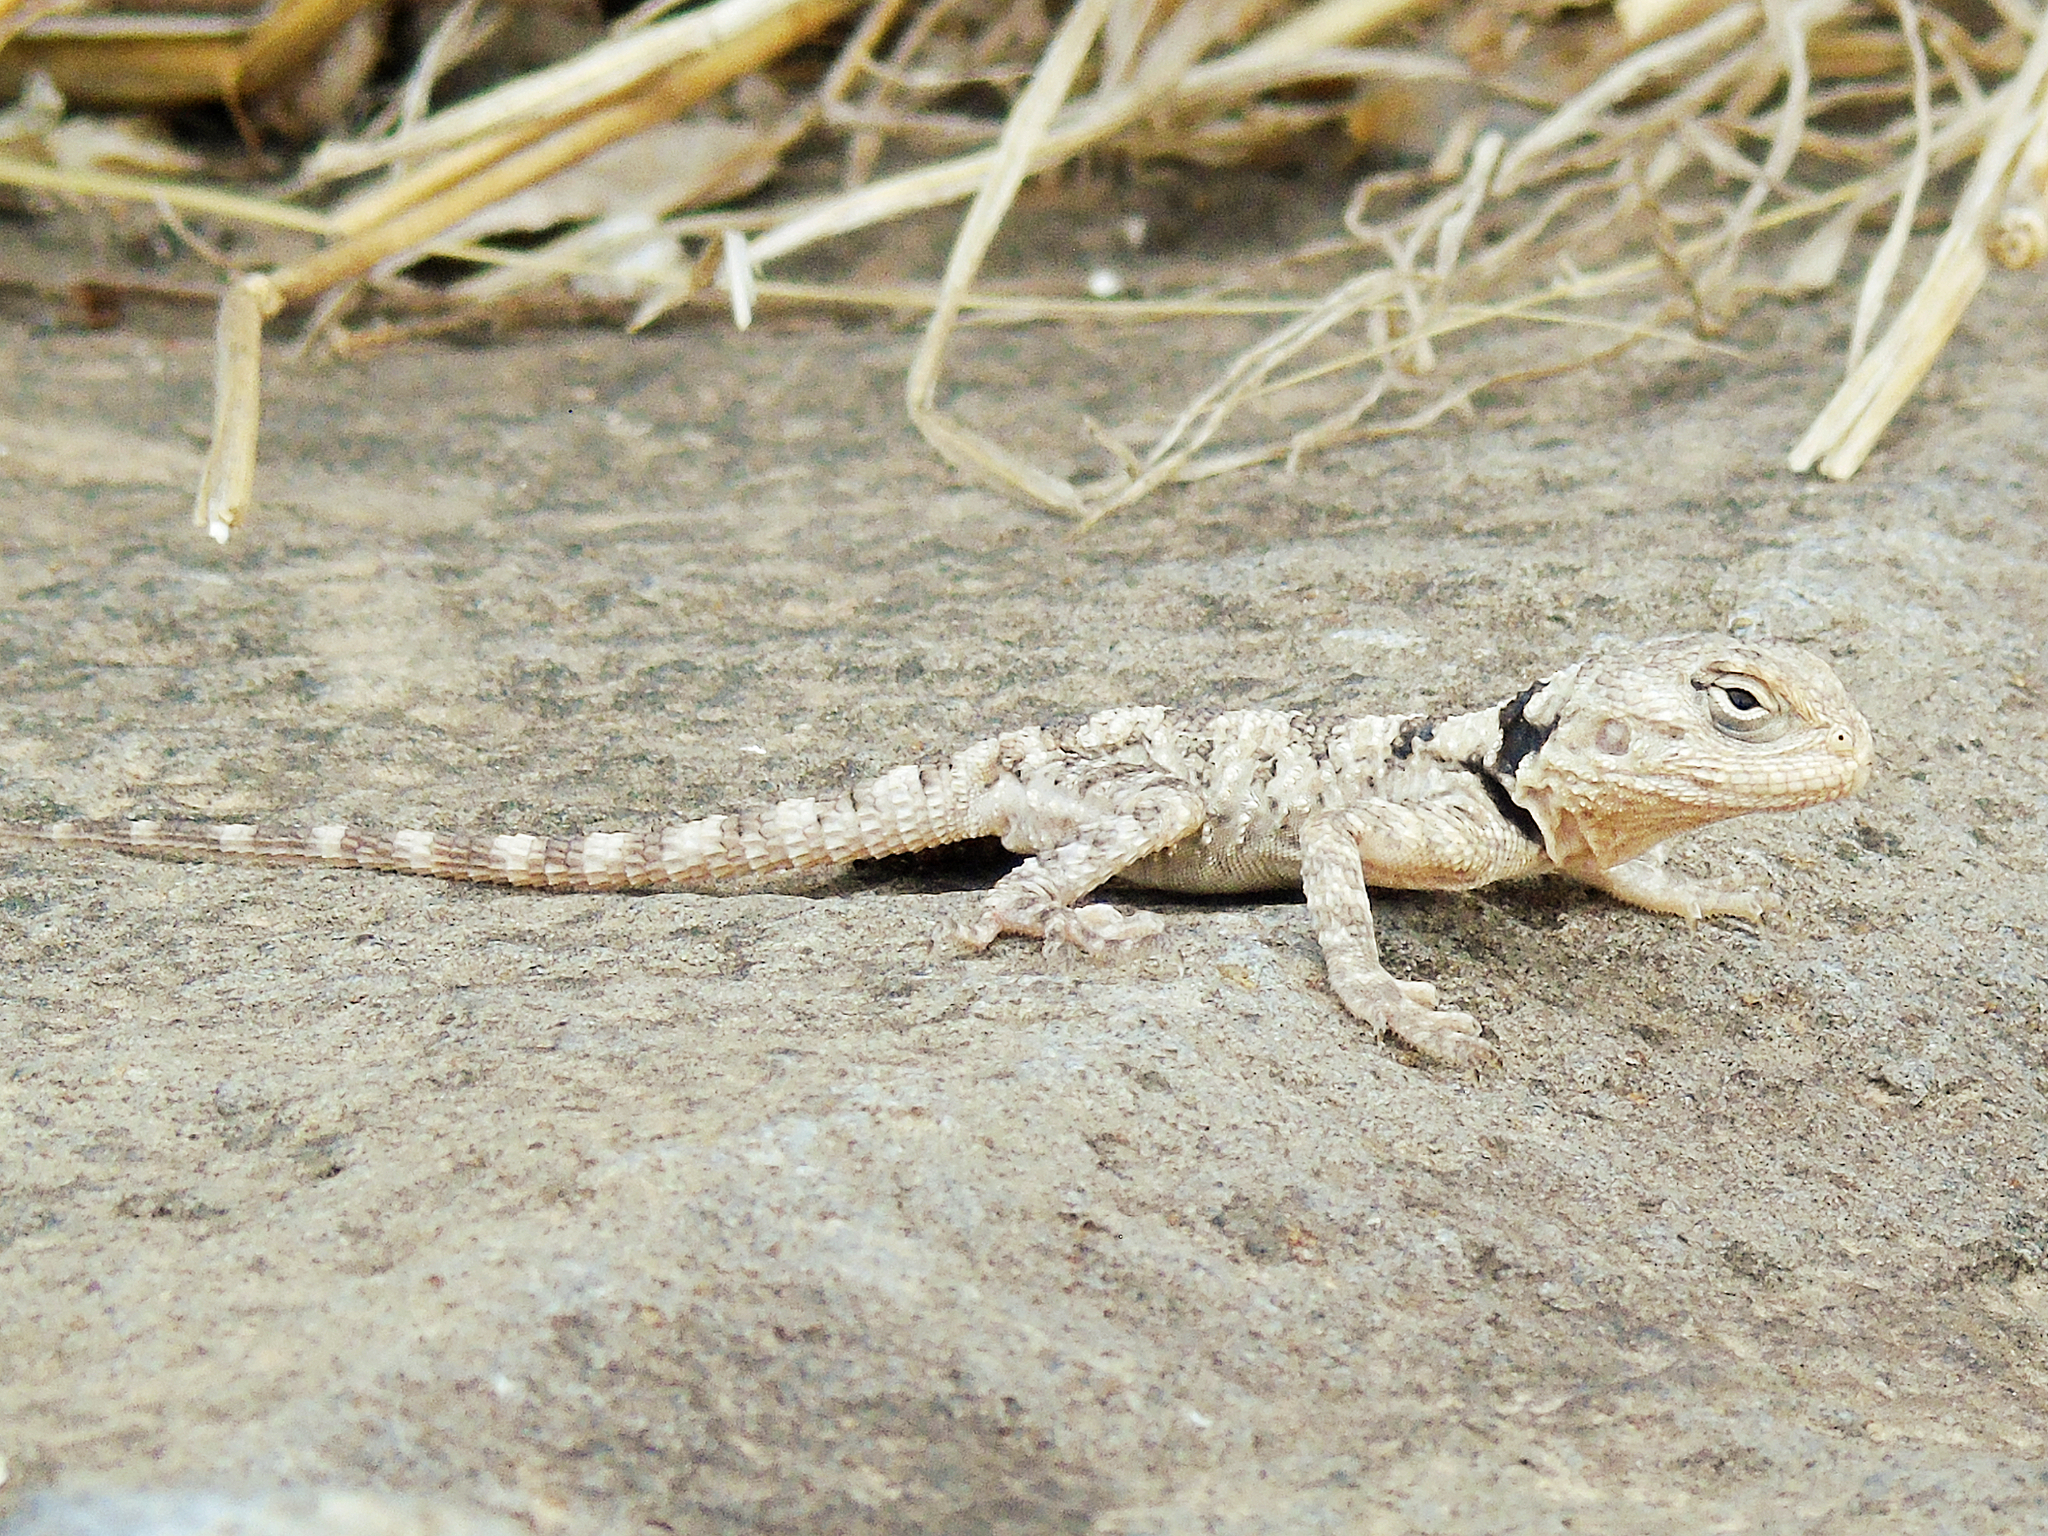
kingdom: Animalia
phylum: Chordata
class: Squamata
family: Agamidae
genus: Stellagama
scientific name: Stellagama stellio
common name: Starred agama
